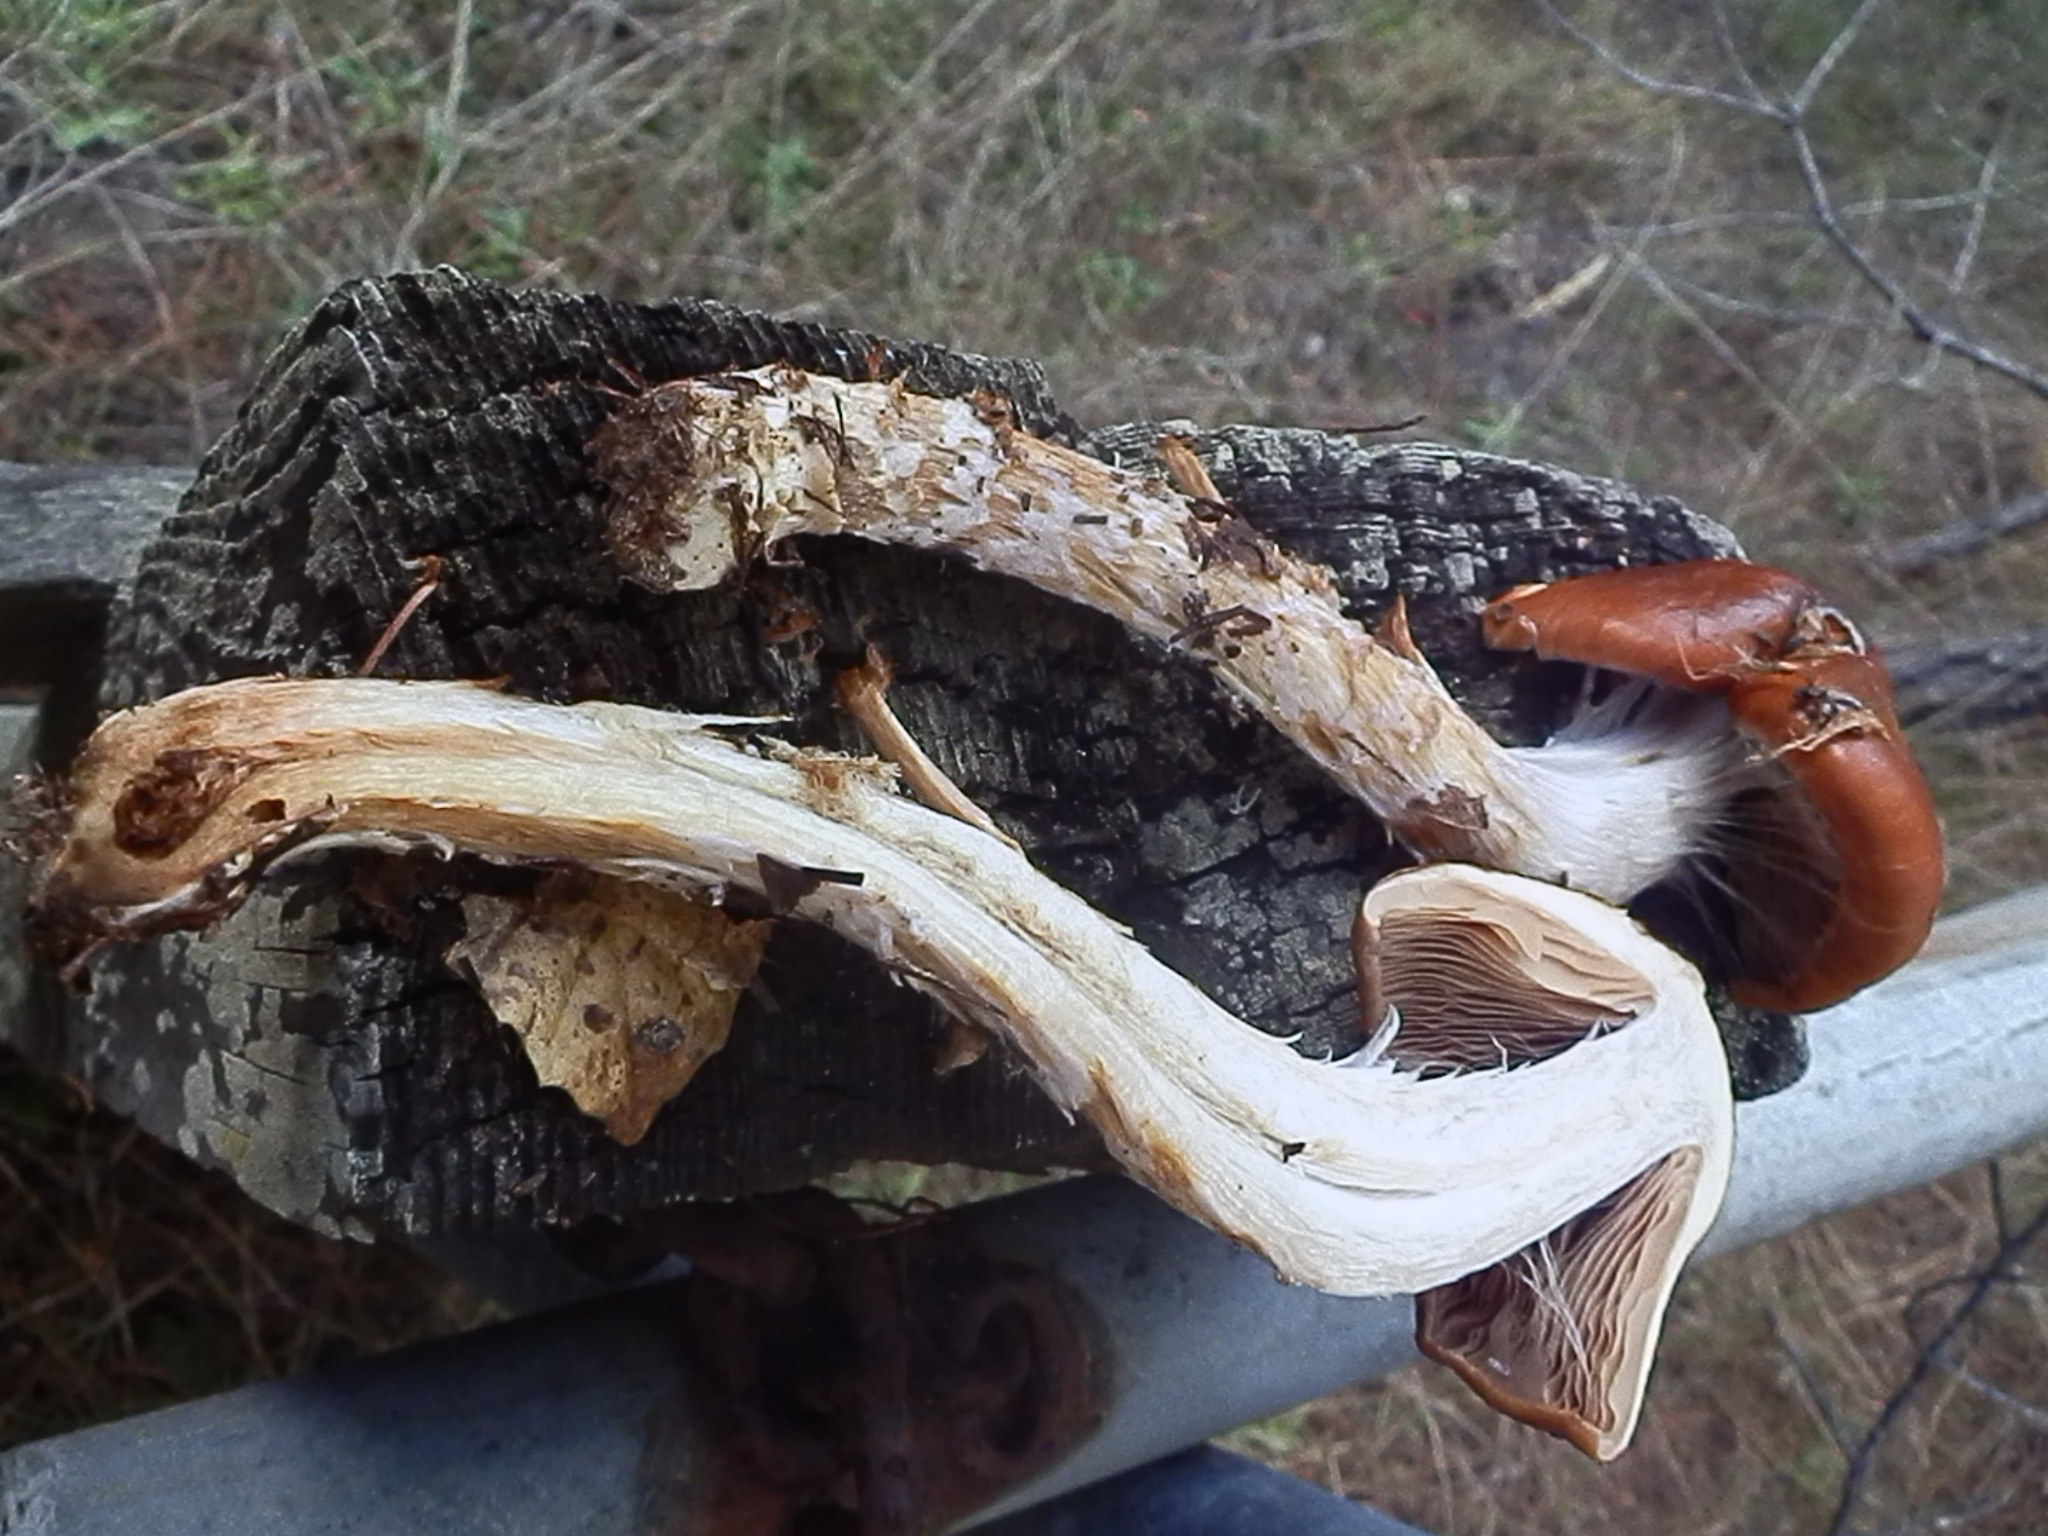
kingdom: Fungi
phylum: Basidiomycota
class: Agaricomycetes
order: Agaricales
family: Cortinariaceae
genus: Cortinarius
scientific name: Cortinarius collinitus
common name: Blue-girdled webcap
